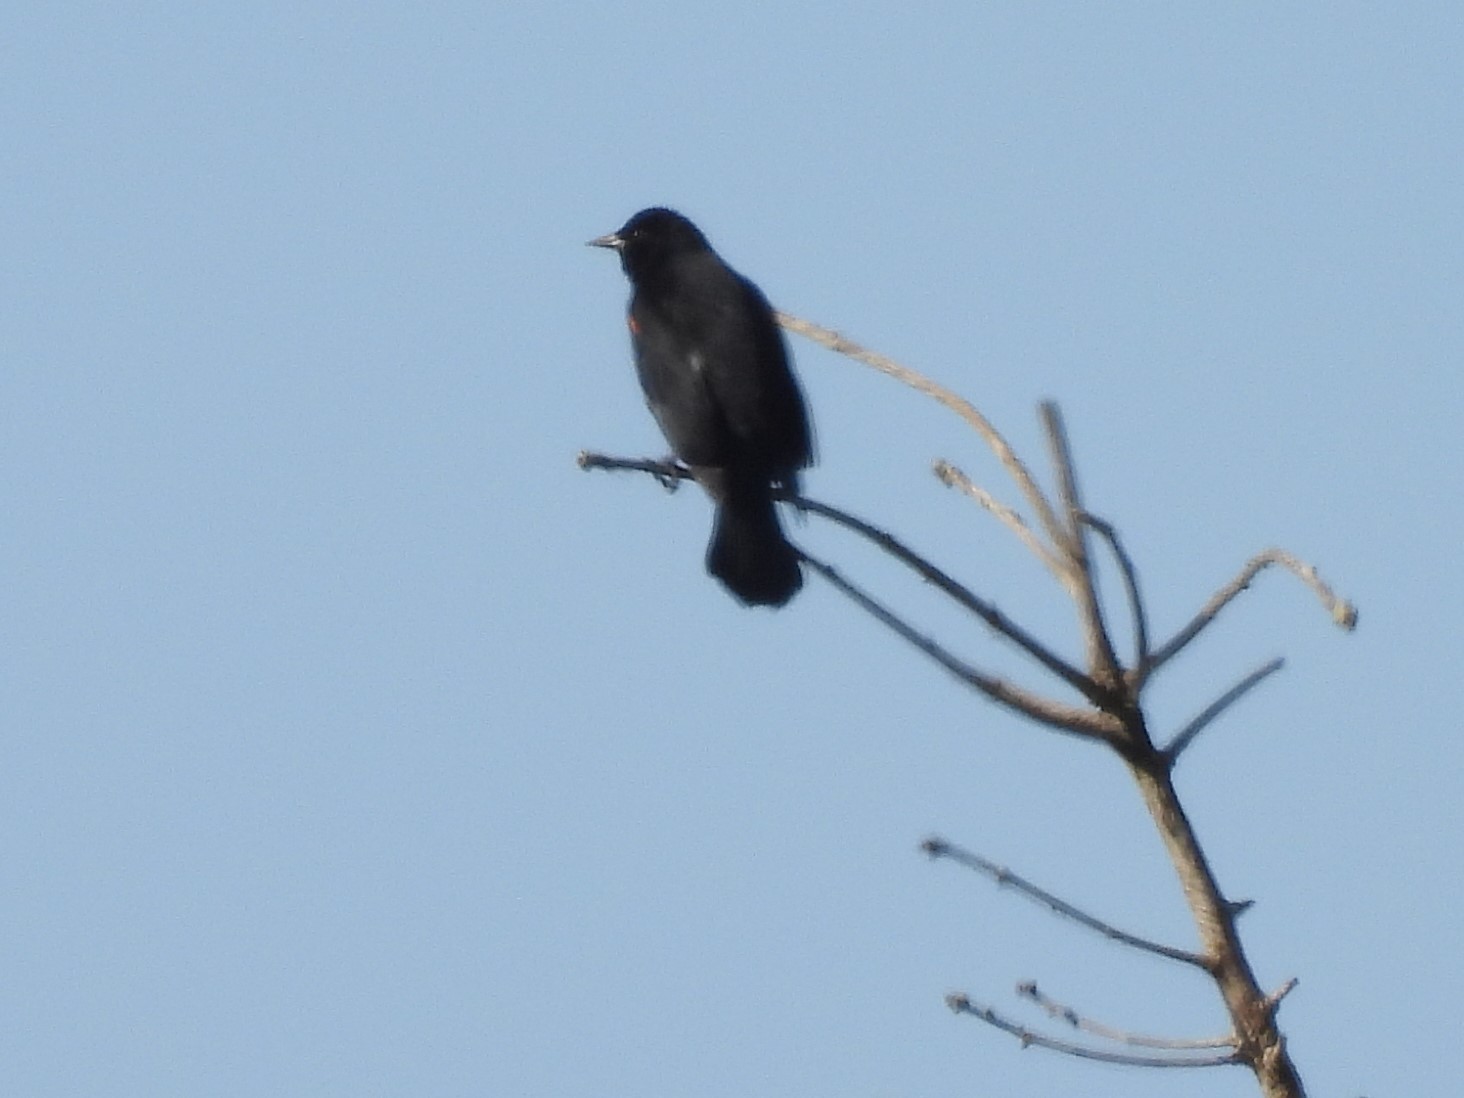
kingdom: Animalia
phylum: Chordata
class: Aves
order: Passeriformes
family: Icteridae
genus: Agelaius
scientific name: Agelaius phoeniceus
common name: Red-winged blackbird
